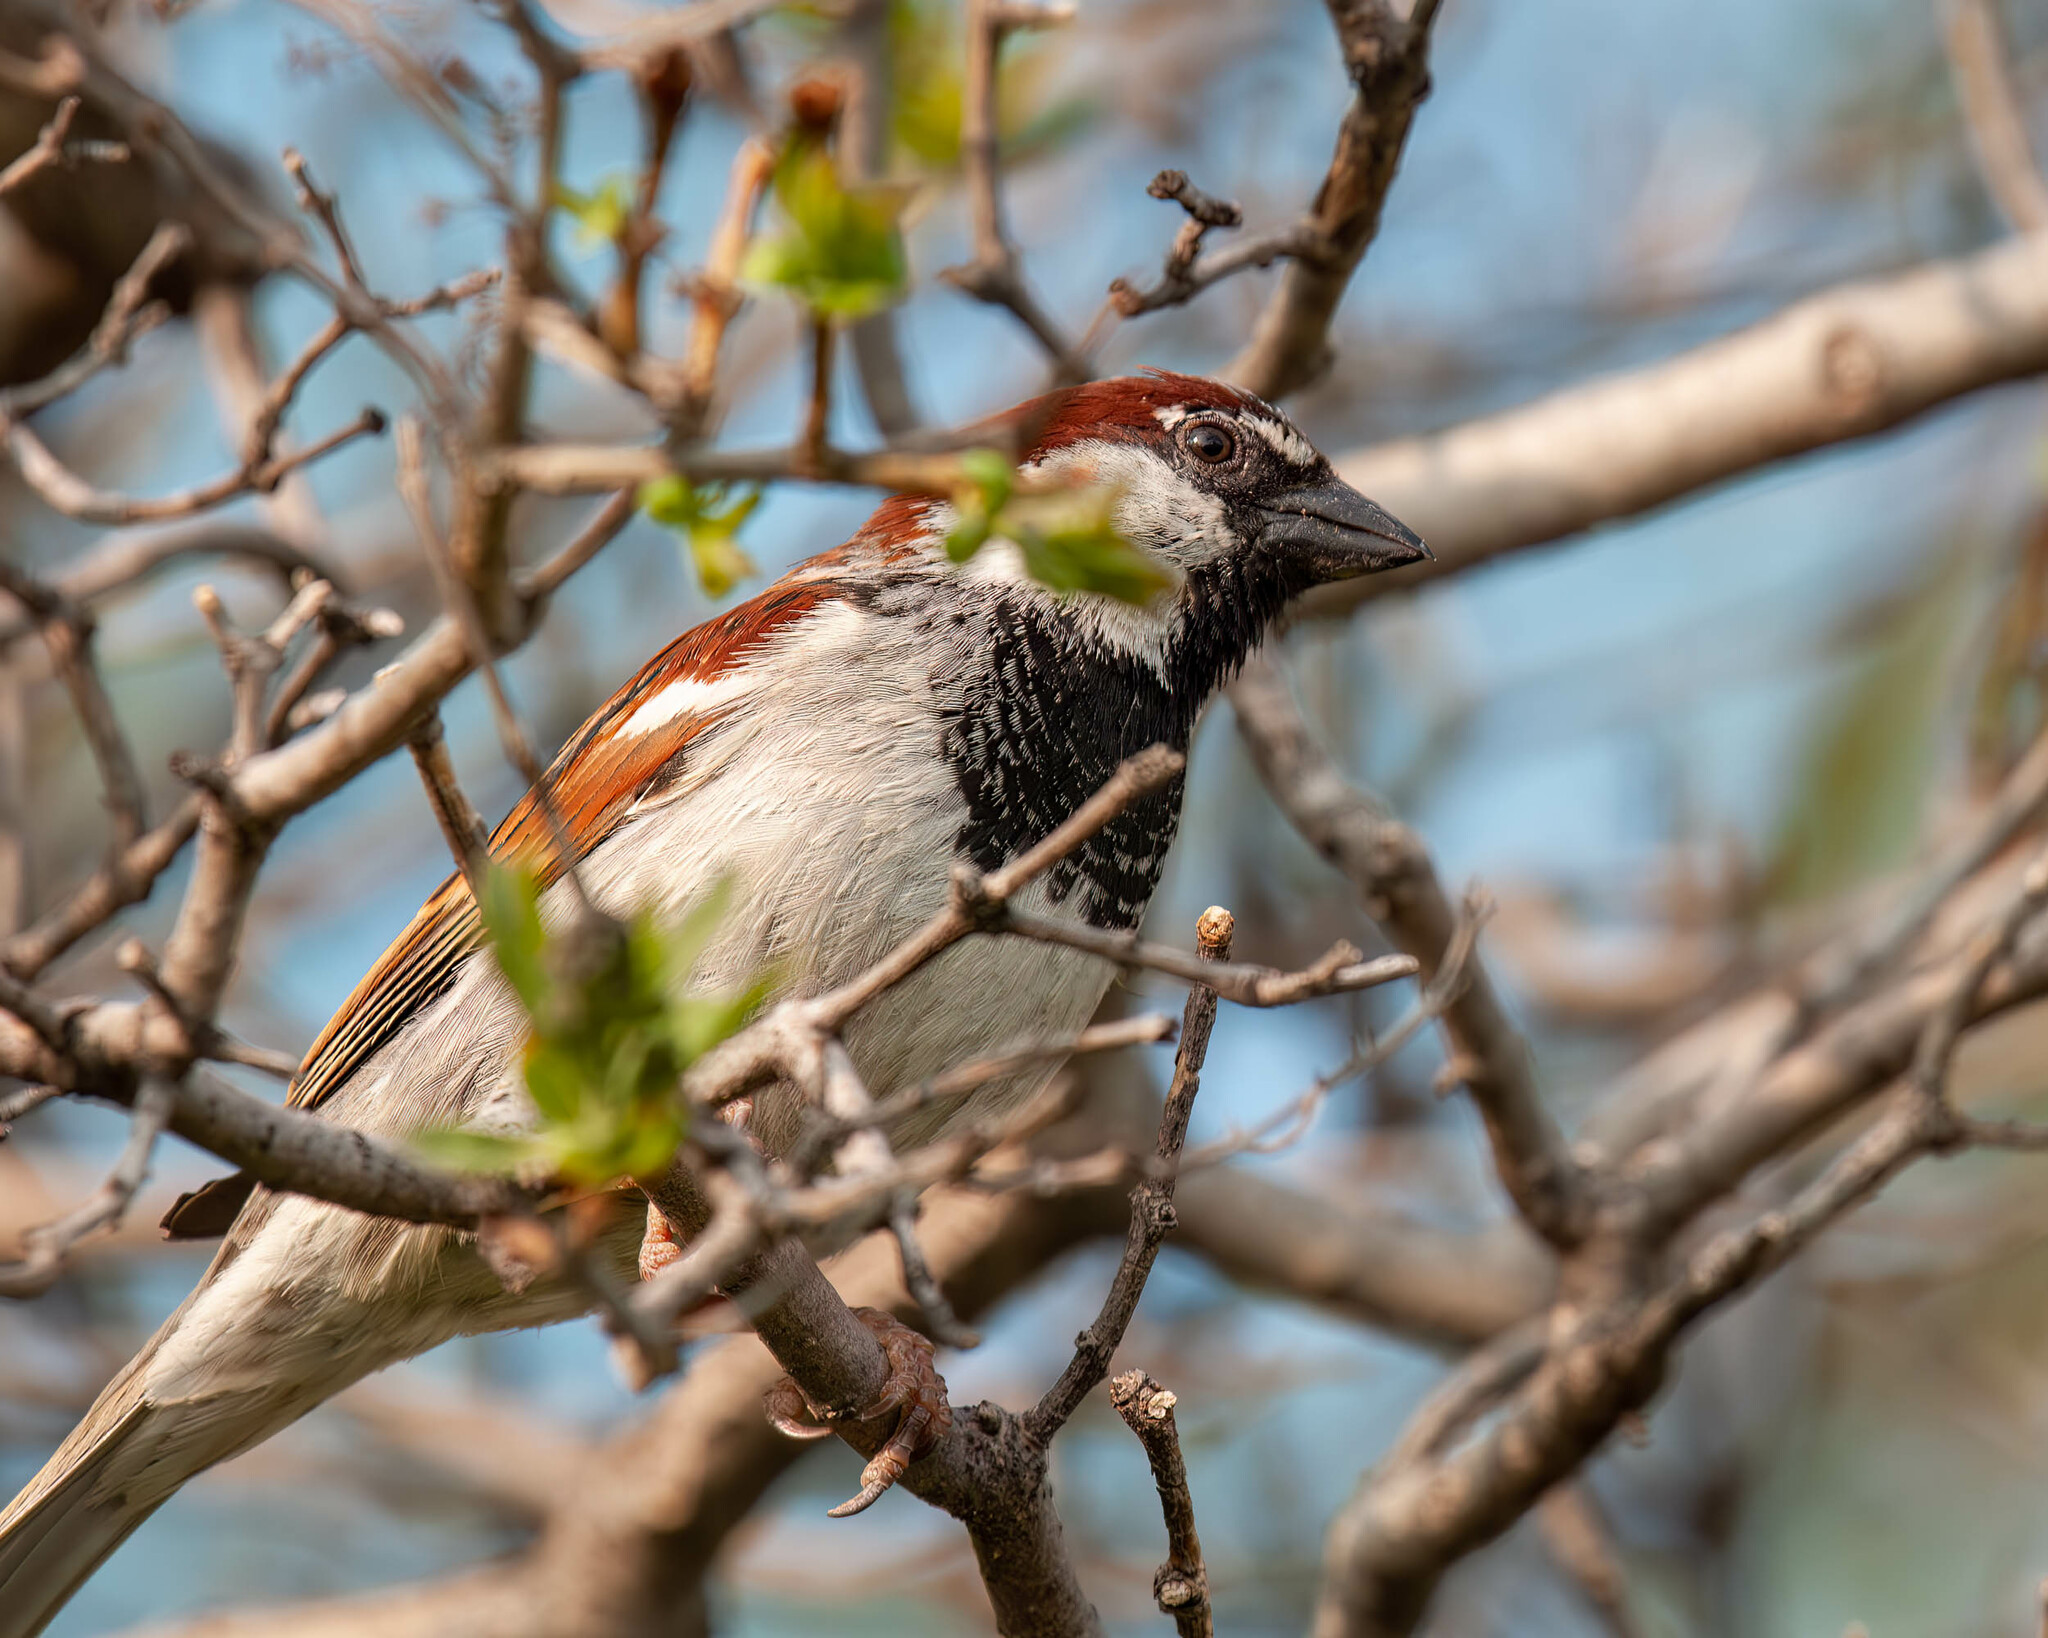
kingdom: Animalia
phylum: Chordata
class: Aves
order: Passeriformes
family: Passeridae
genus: Passer
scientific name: Passer domesticus
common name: House sparrow
